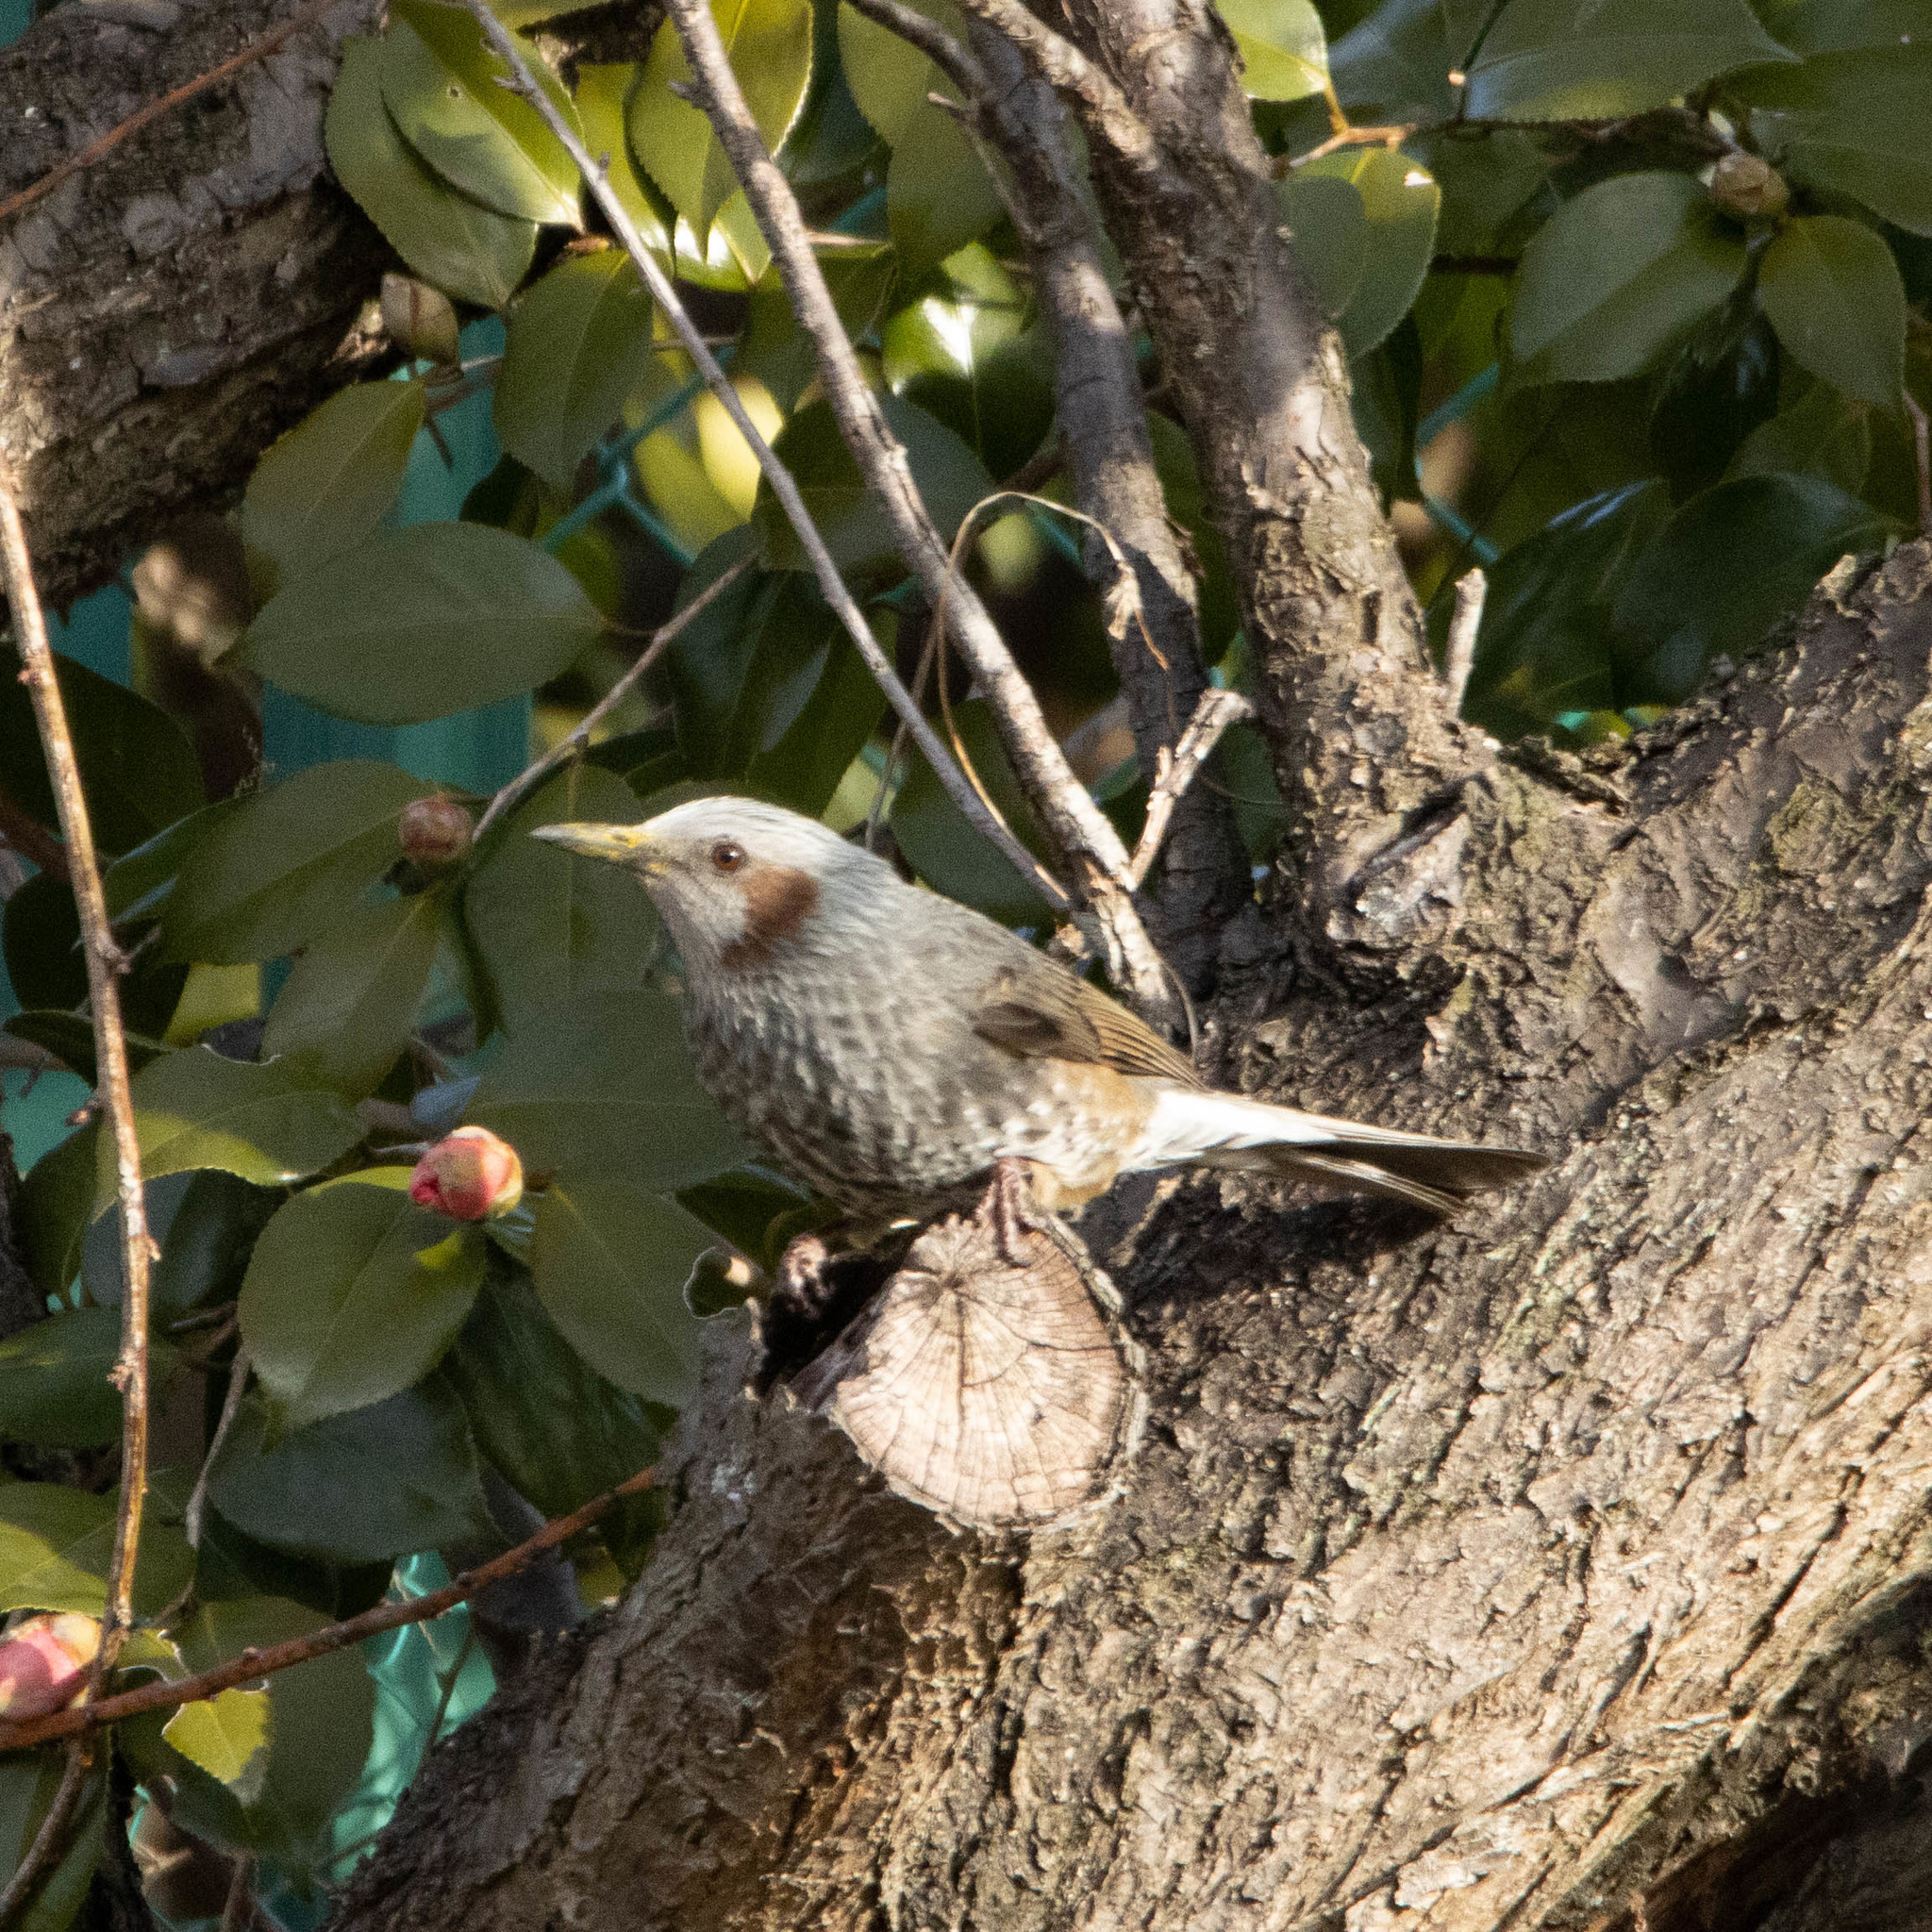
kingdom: Animalia
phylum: Chordata
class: Aves
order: Passeriformes
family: Pycnonotidae
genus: Hypsipetes
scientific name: Hypsipetes amaurotis
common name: Brown-eared bulbul
